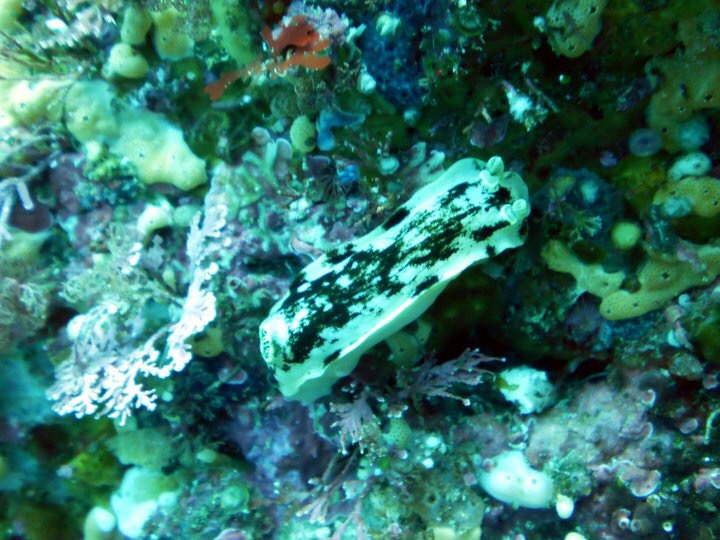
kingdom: Animalia
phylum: Mollusca
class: Gastropoda
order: Nudibranchia
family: Dorididae
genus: Aphelodoris
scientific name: Aphelodoris luctuosa
